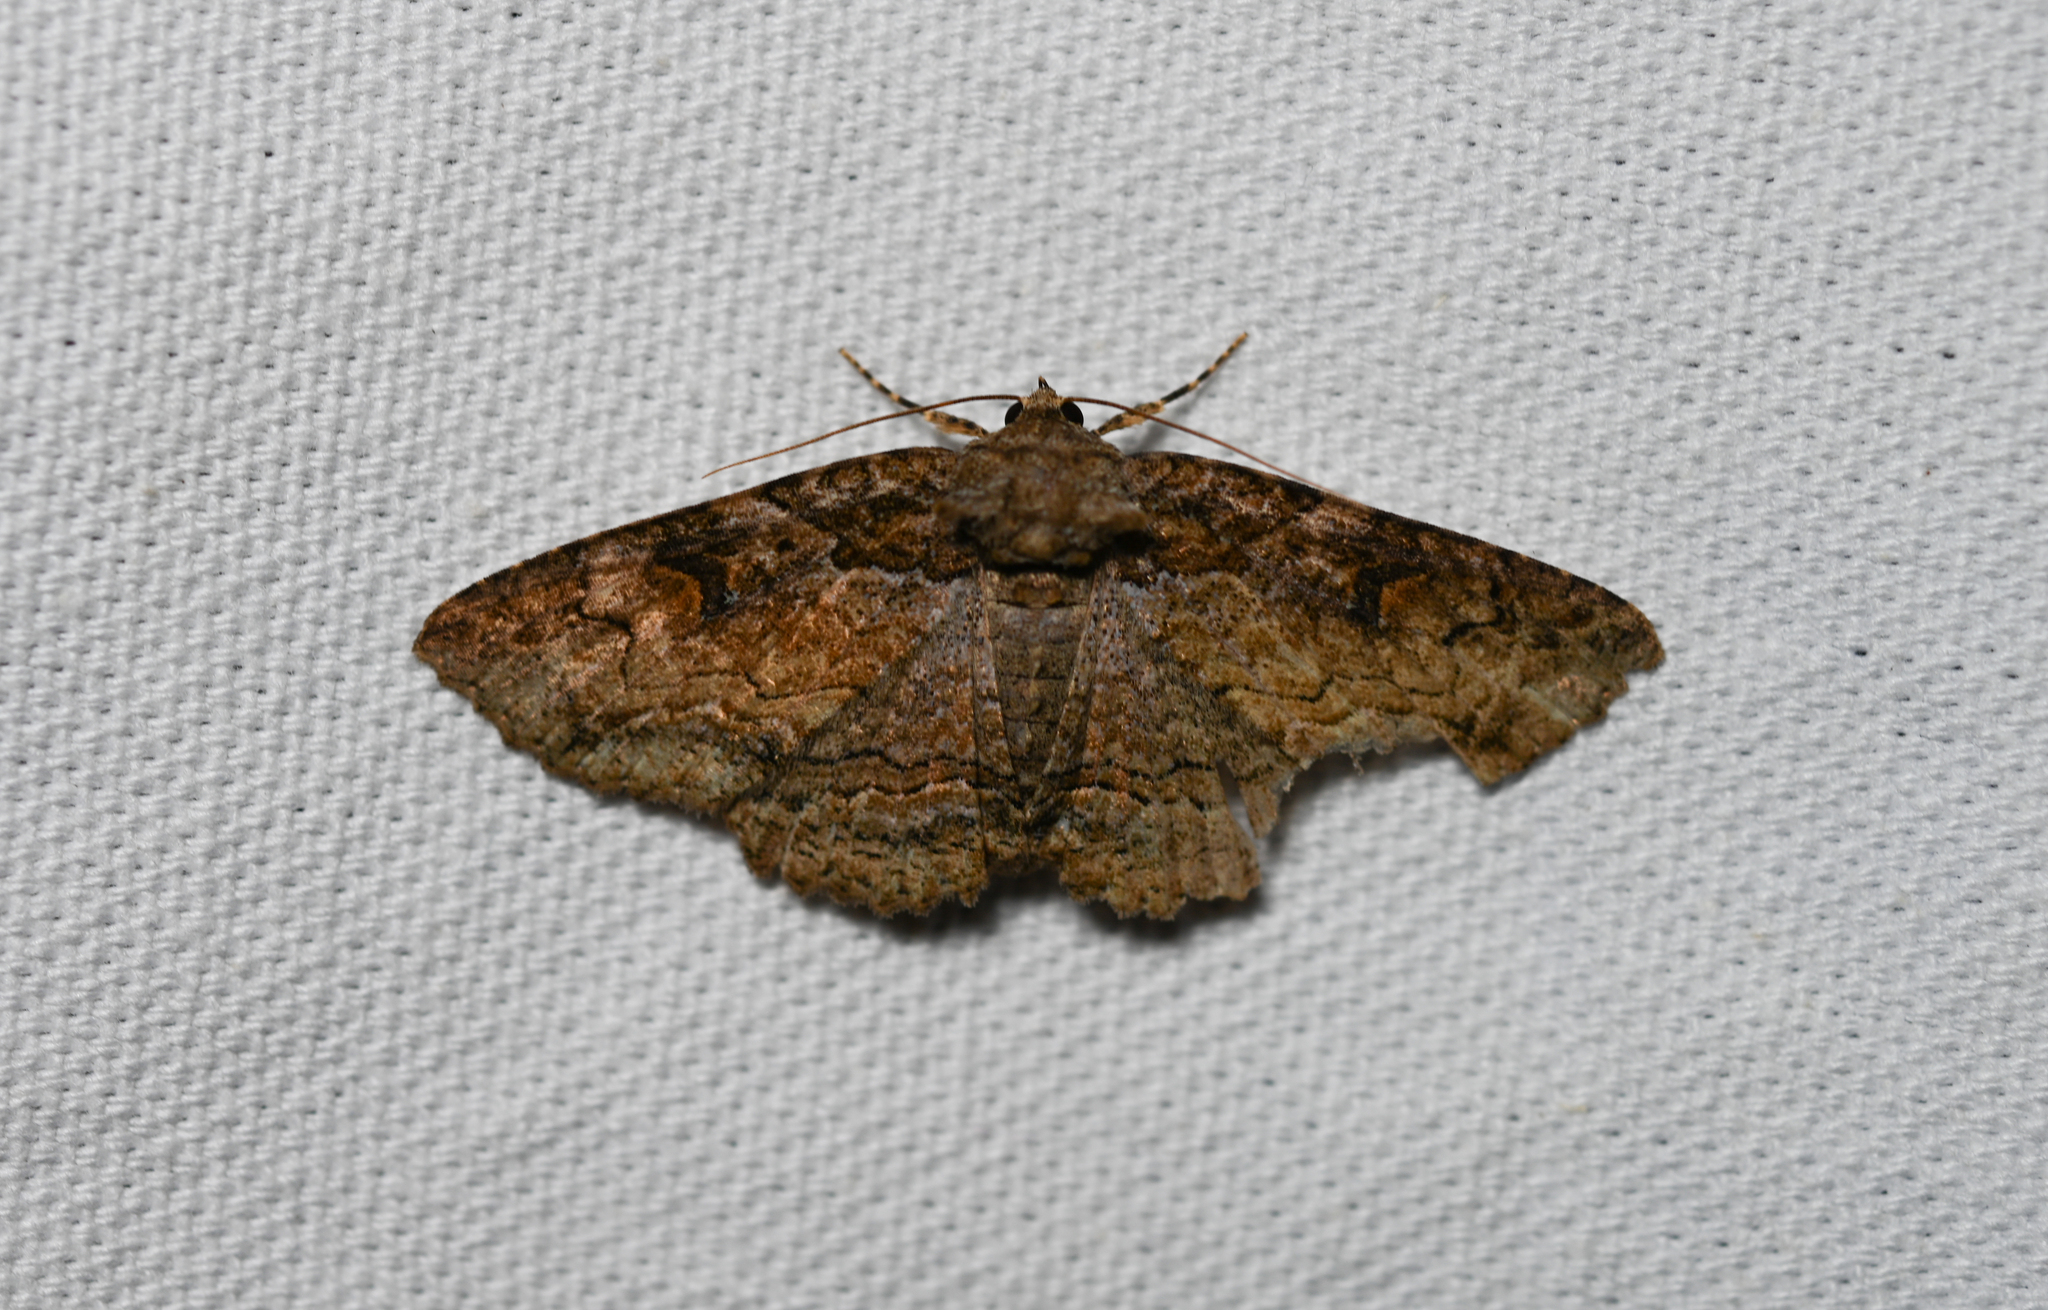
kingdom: Animalia
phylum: Arthropoda
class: Insecta
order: Lepidoptera
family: Erebidae
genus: Zale
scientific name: Zale galbanata
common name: Maple zale
